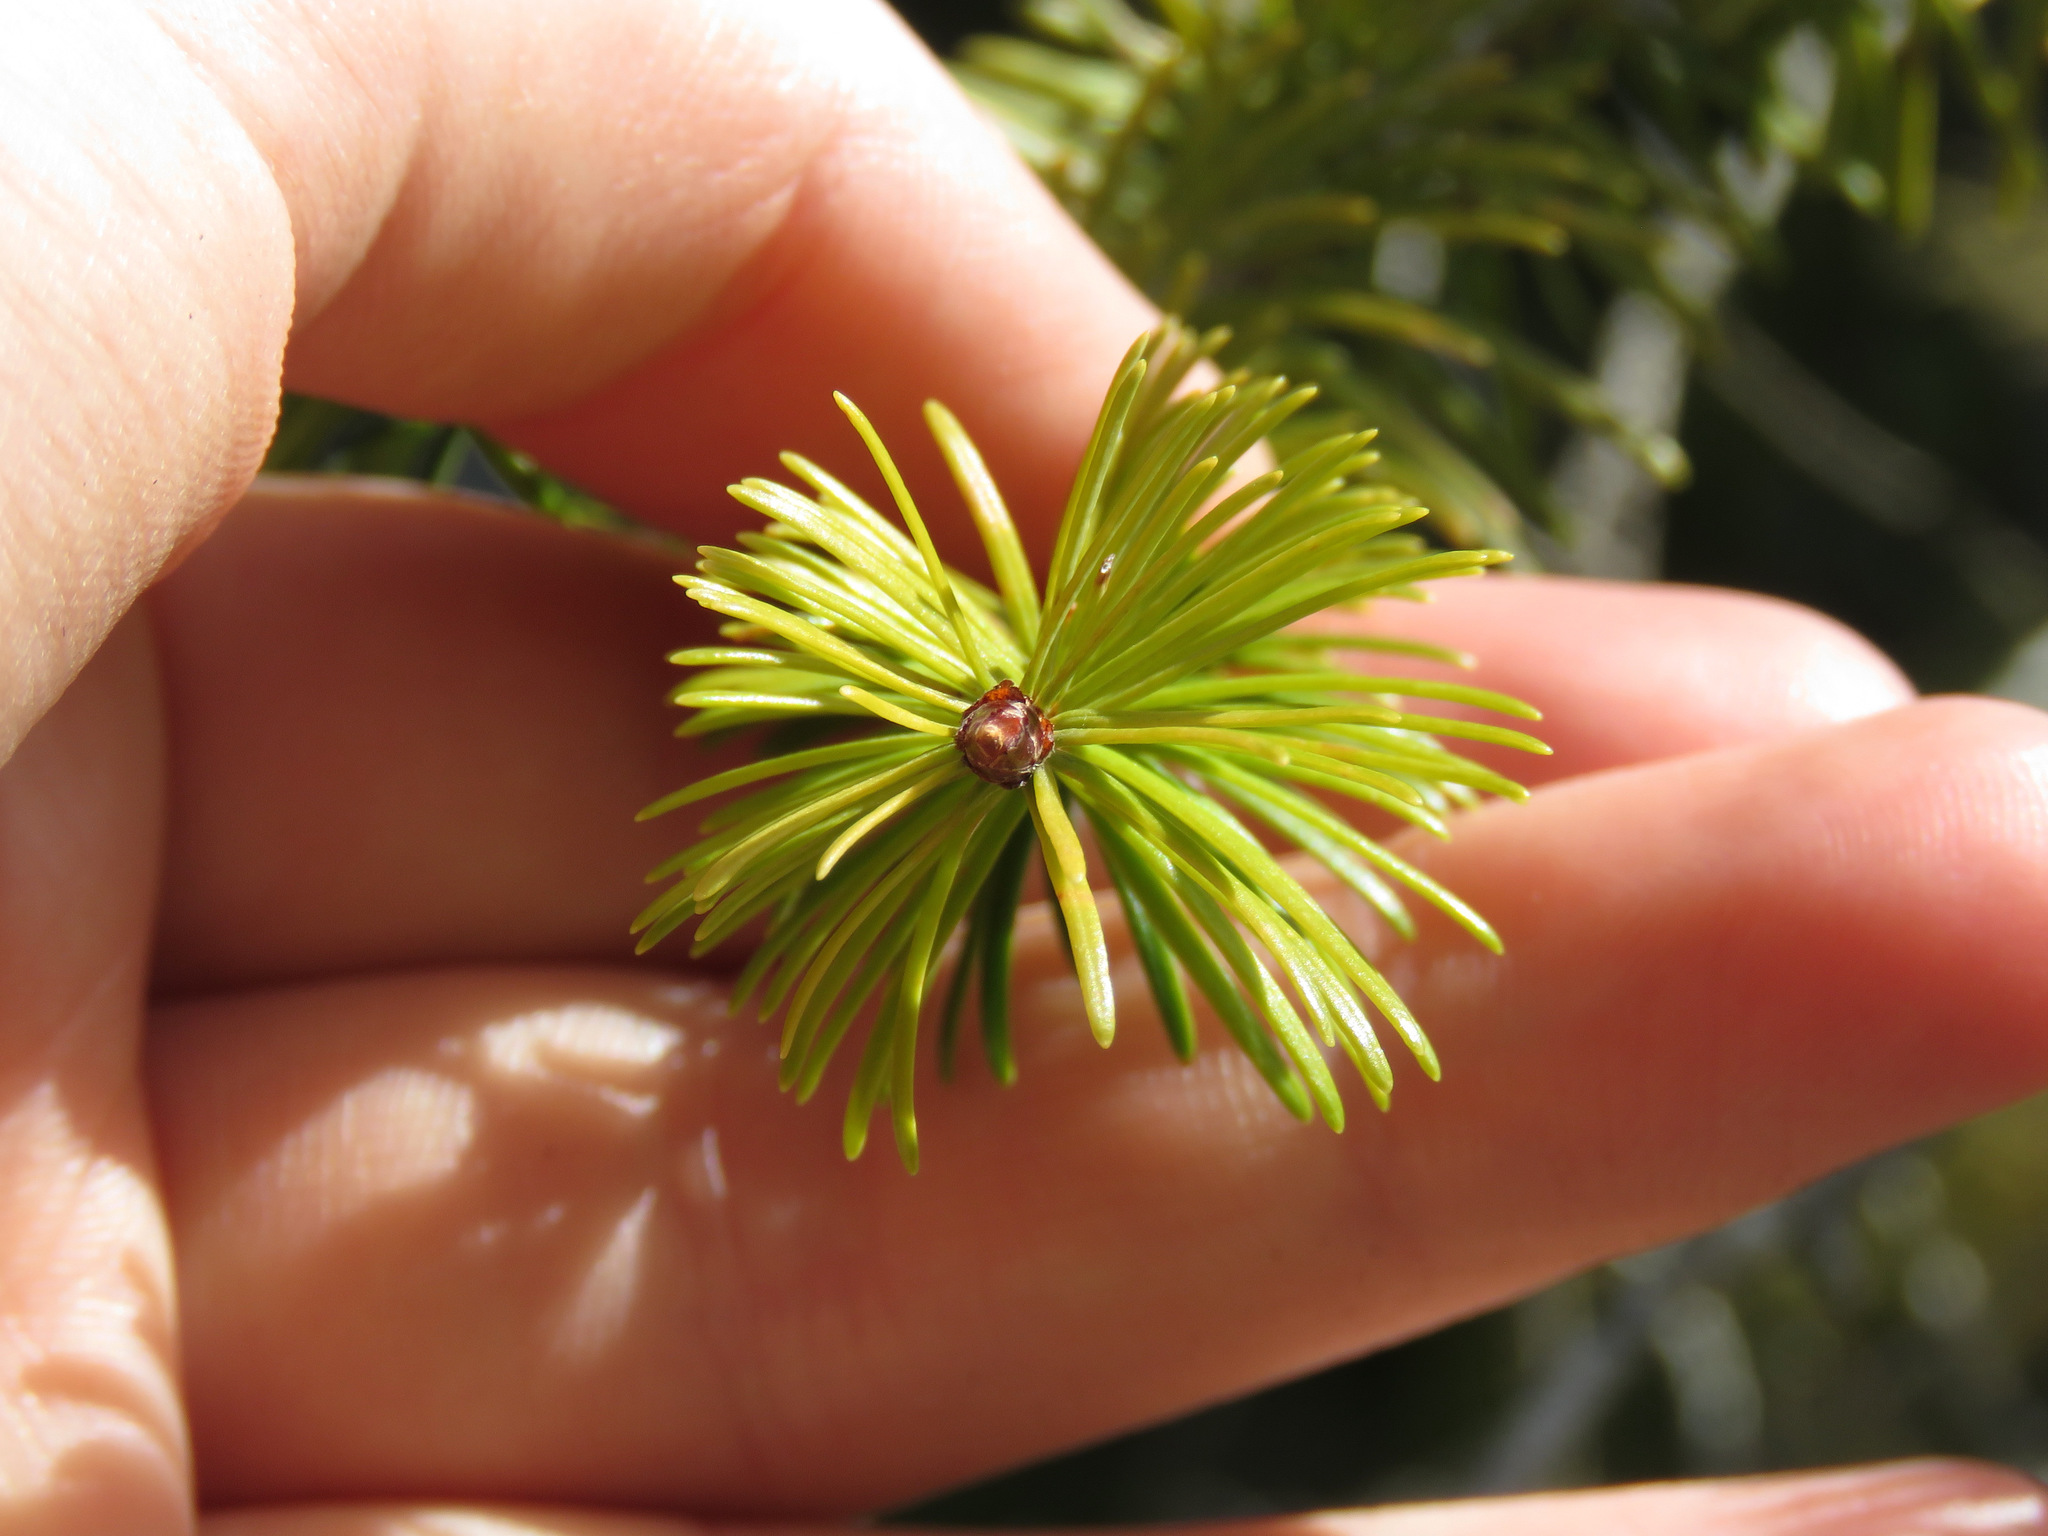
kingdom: Plantae
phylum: Tracheophyta
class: Pinopsida
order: Pinales
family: Pinaceae
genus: Pseudotsuga
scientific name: Pseudotsuga menziesii
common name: Douglas fir
